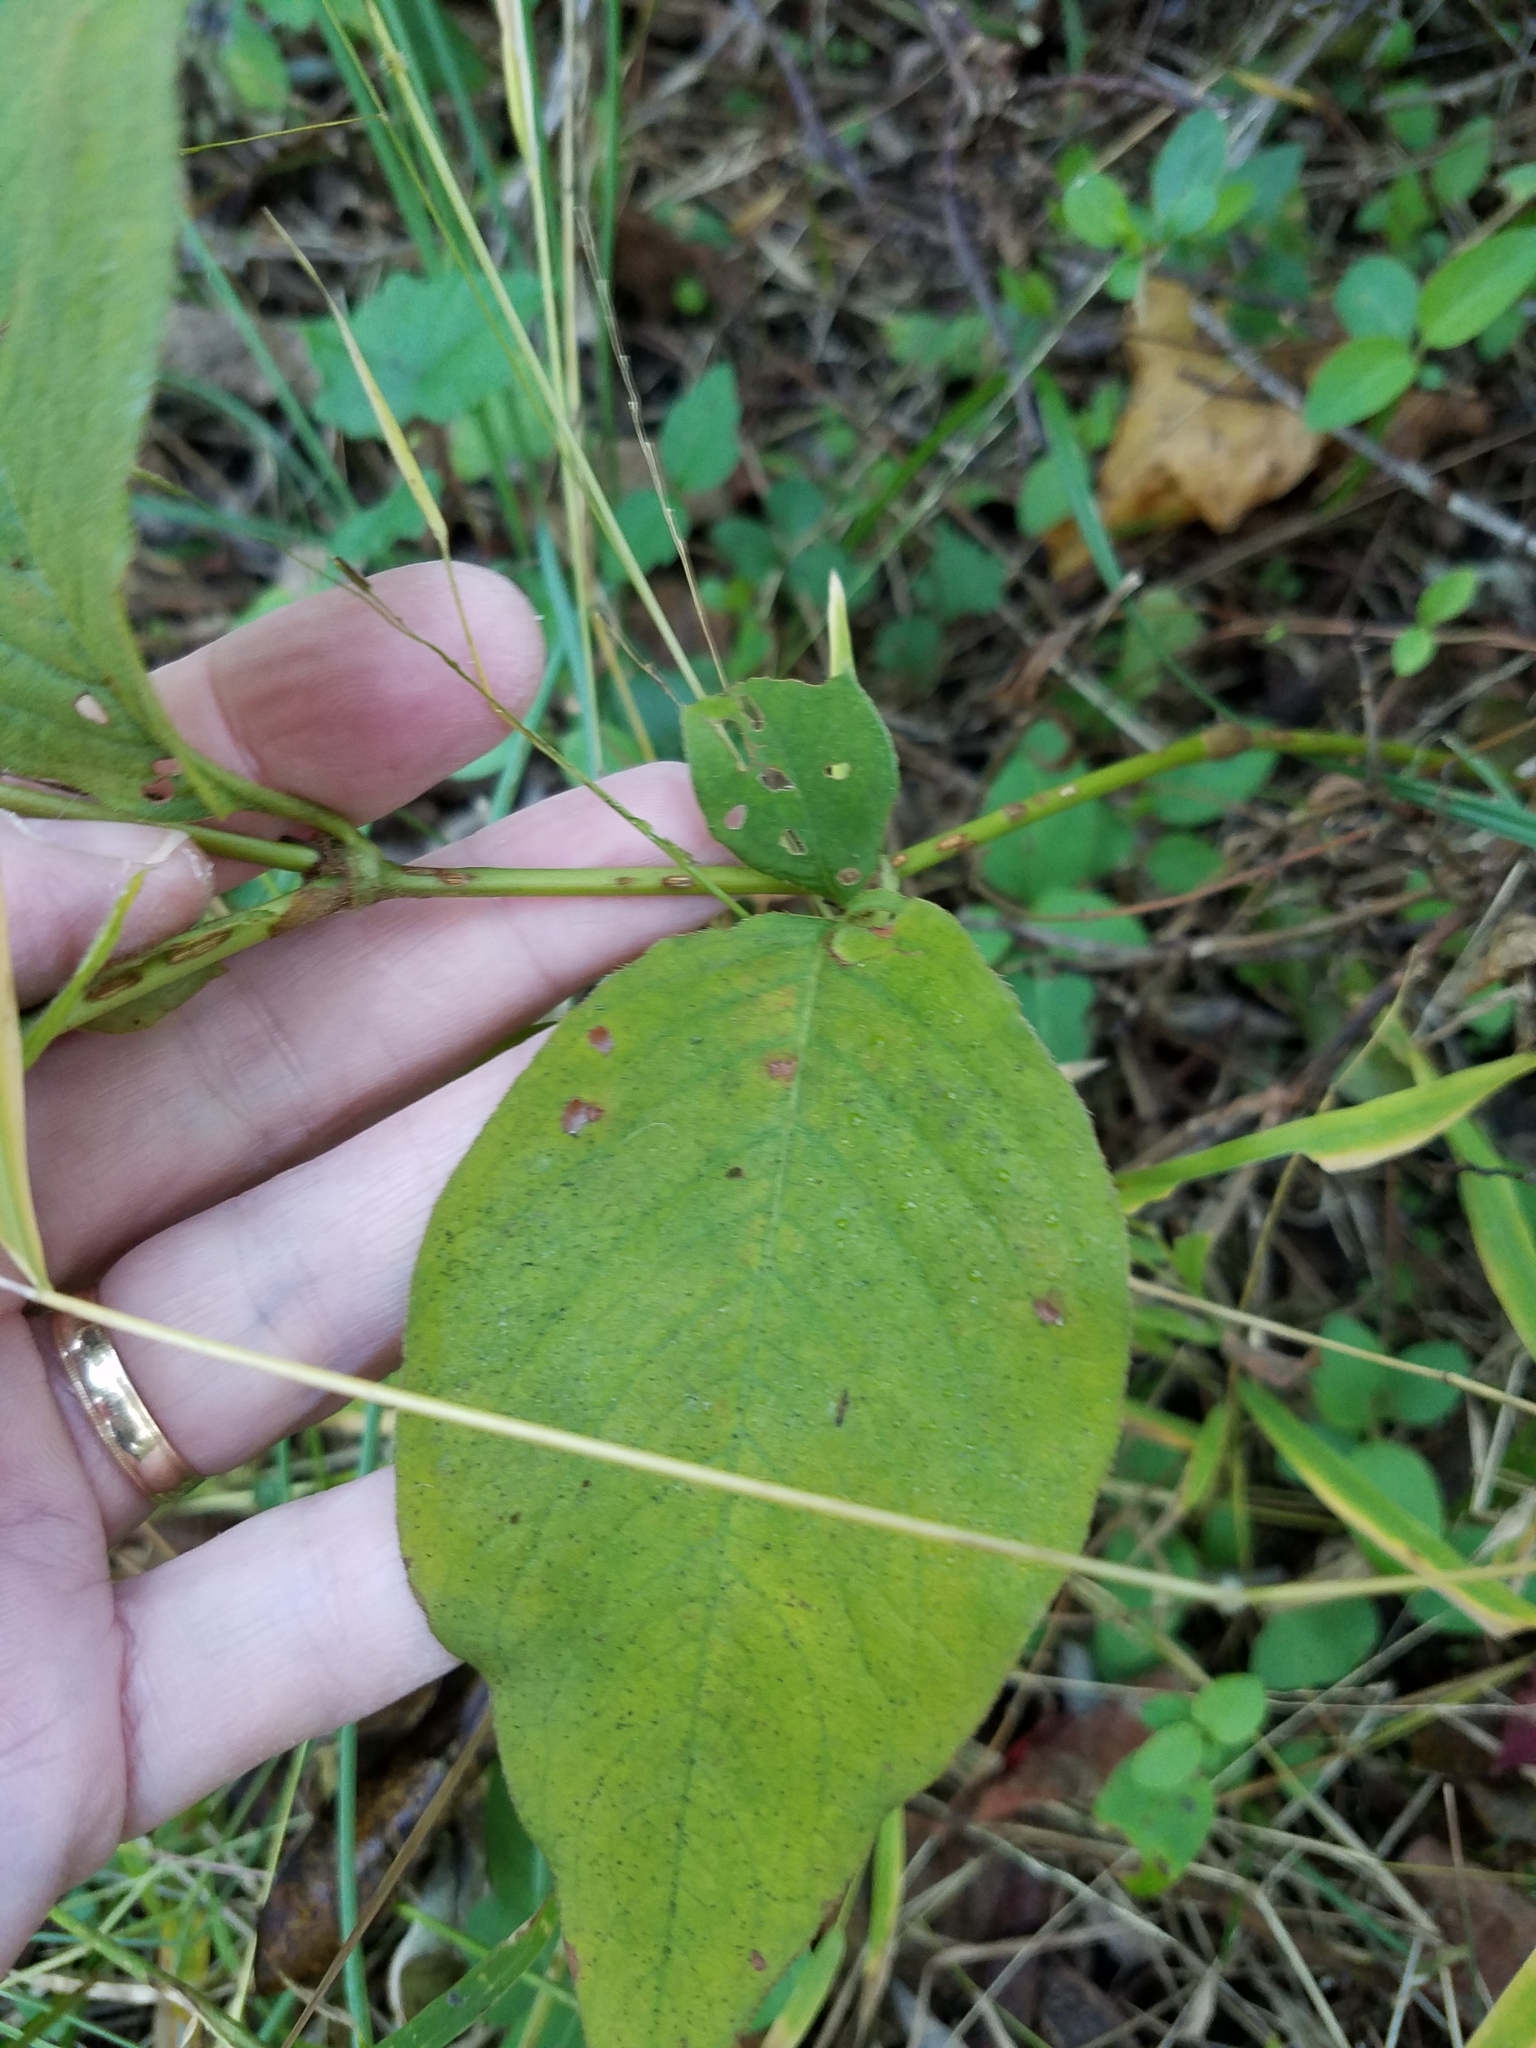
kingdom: Plantae
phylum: Tracheophyta
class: Magnoliopsida
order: Caryophyllales
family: Polygonaceae
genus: Persicaria
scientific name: Persicaria virginiana
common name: Jumpseed
